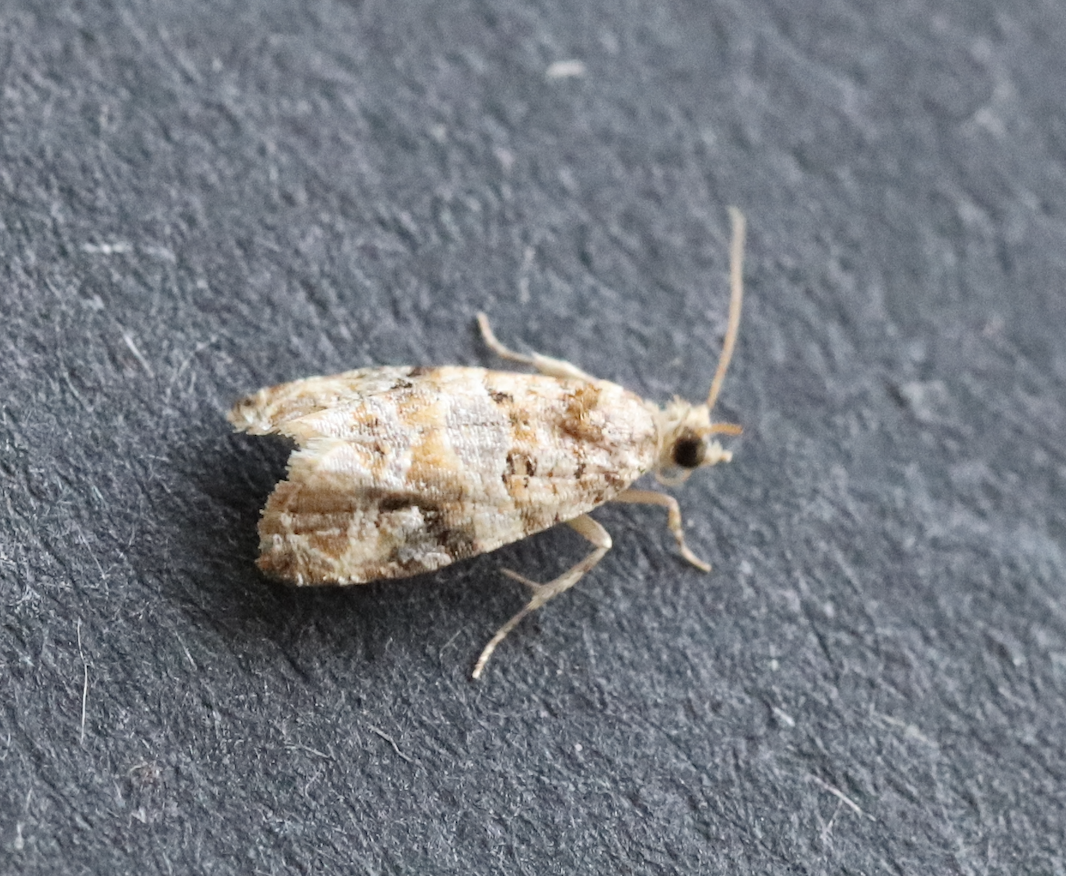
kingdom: Animalia
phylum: Arthropoda
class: Insecta
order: Lepidoptera
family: Tortricidae
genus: Lobesia
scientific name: Lobesia botrana
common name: European vine moth
